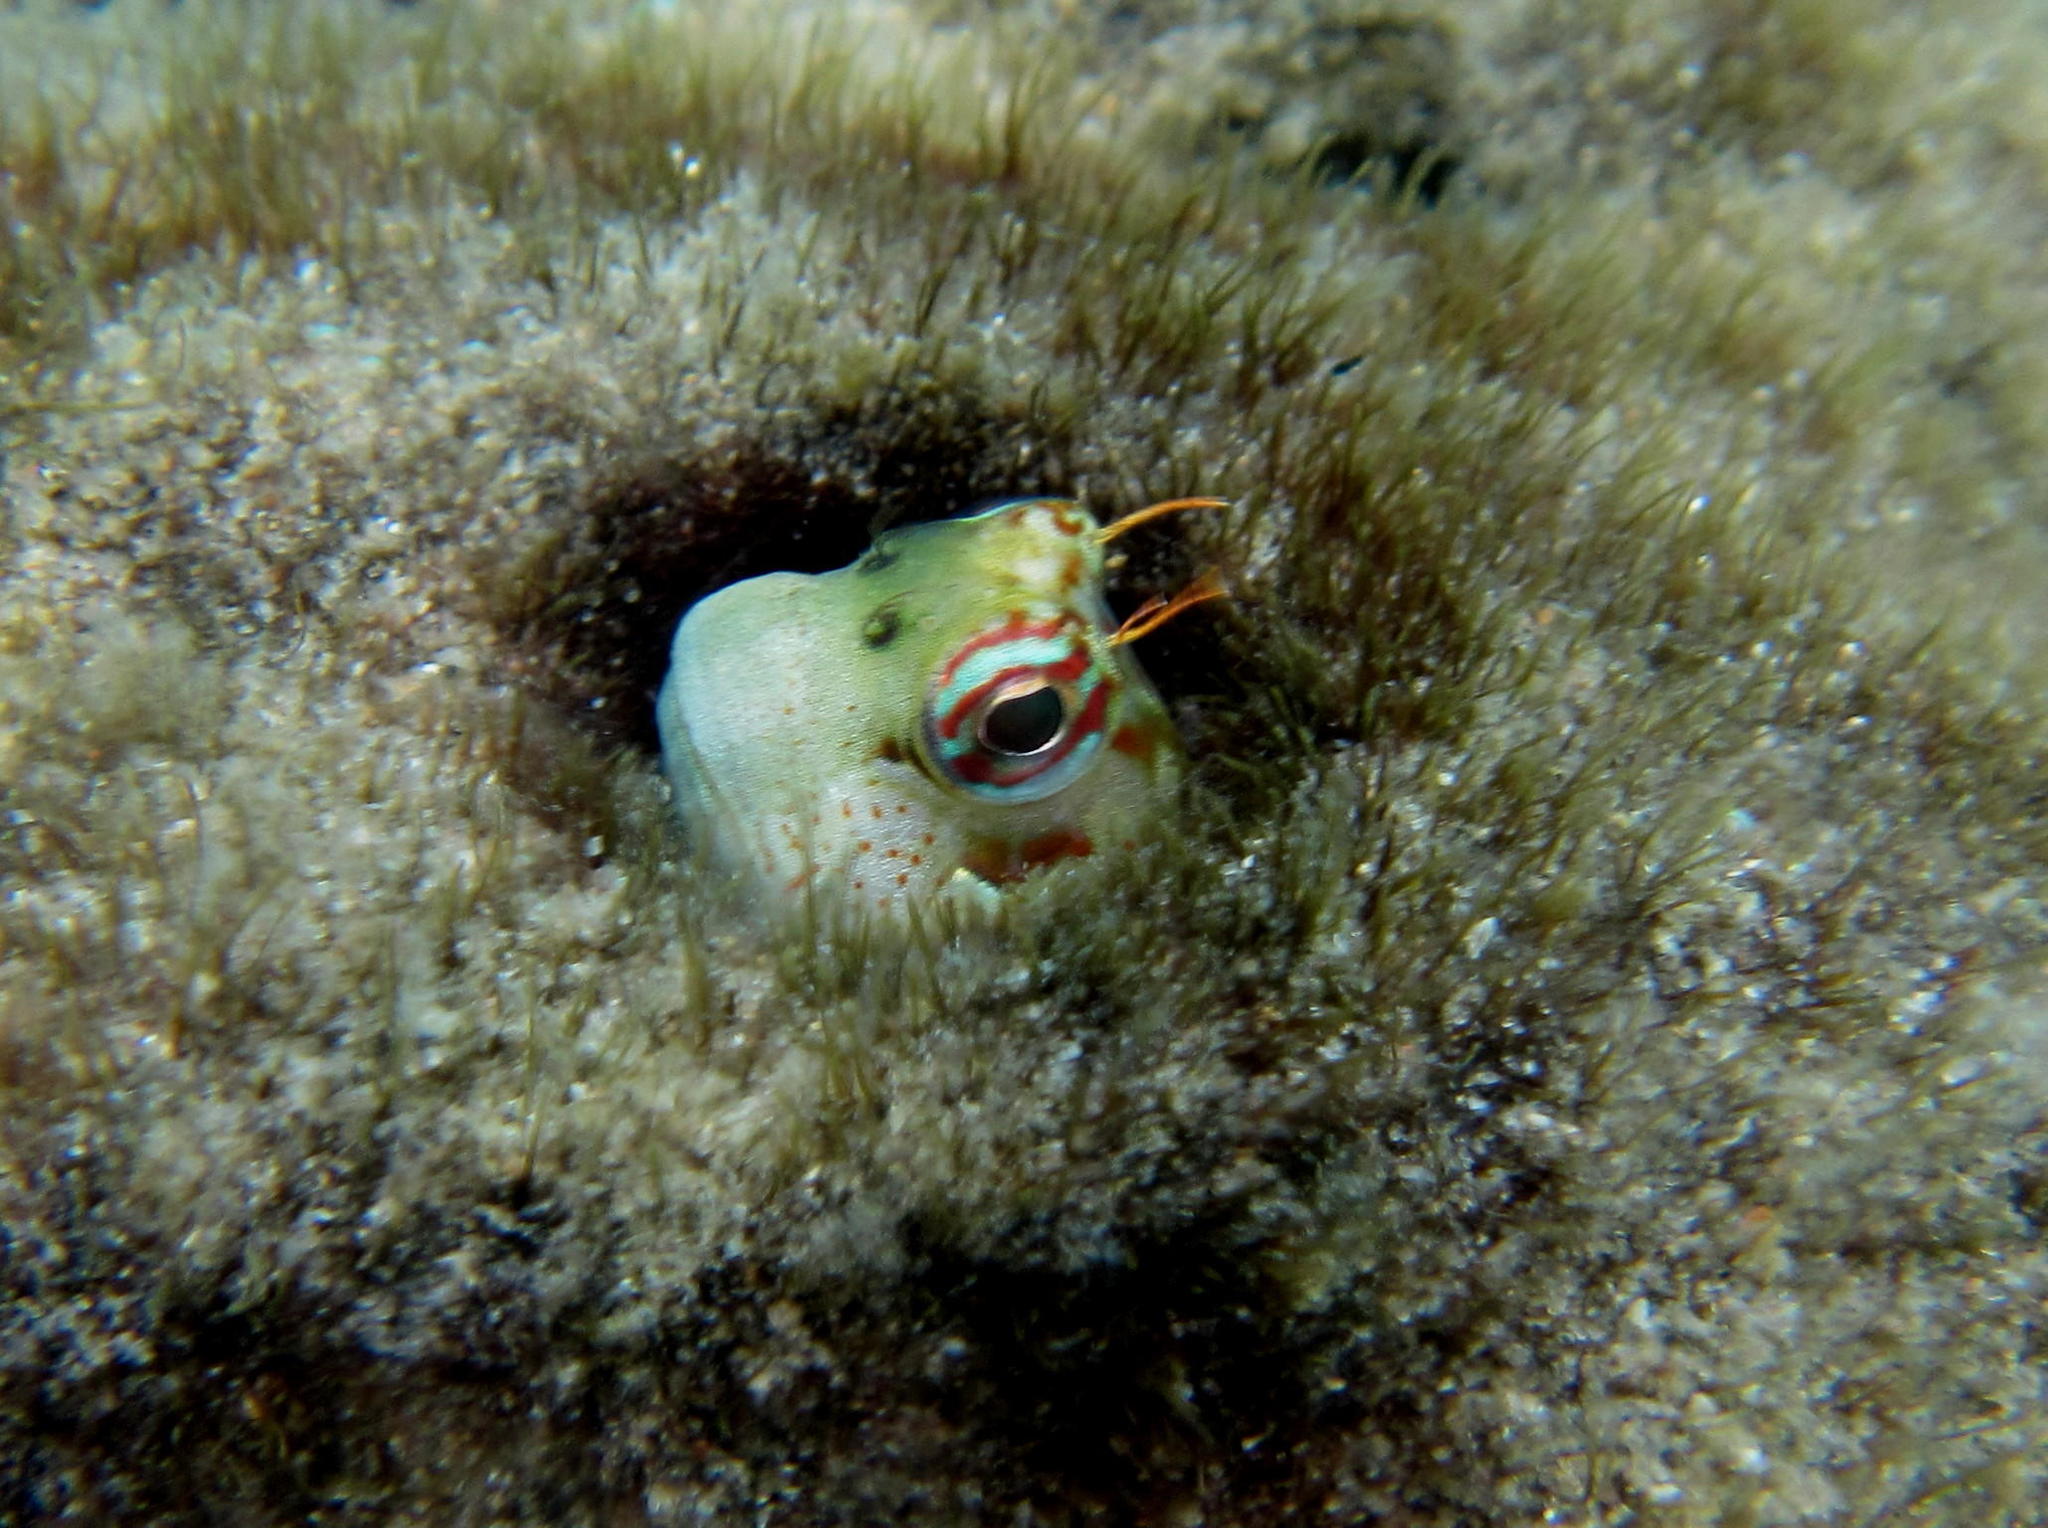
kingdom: Animalia
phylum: Chordata
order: Perciformes
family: Blenniidae
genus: Blenniella
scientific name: Blenniella periophthalmus
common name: Blue-dashed rockskipper
